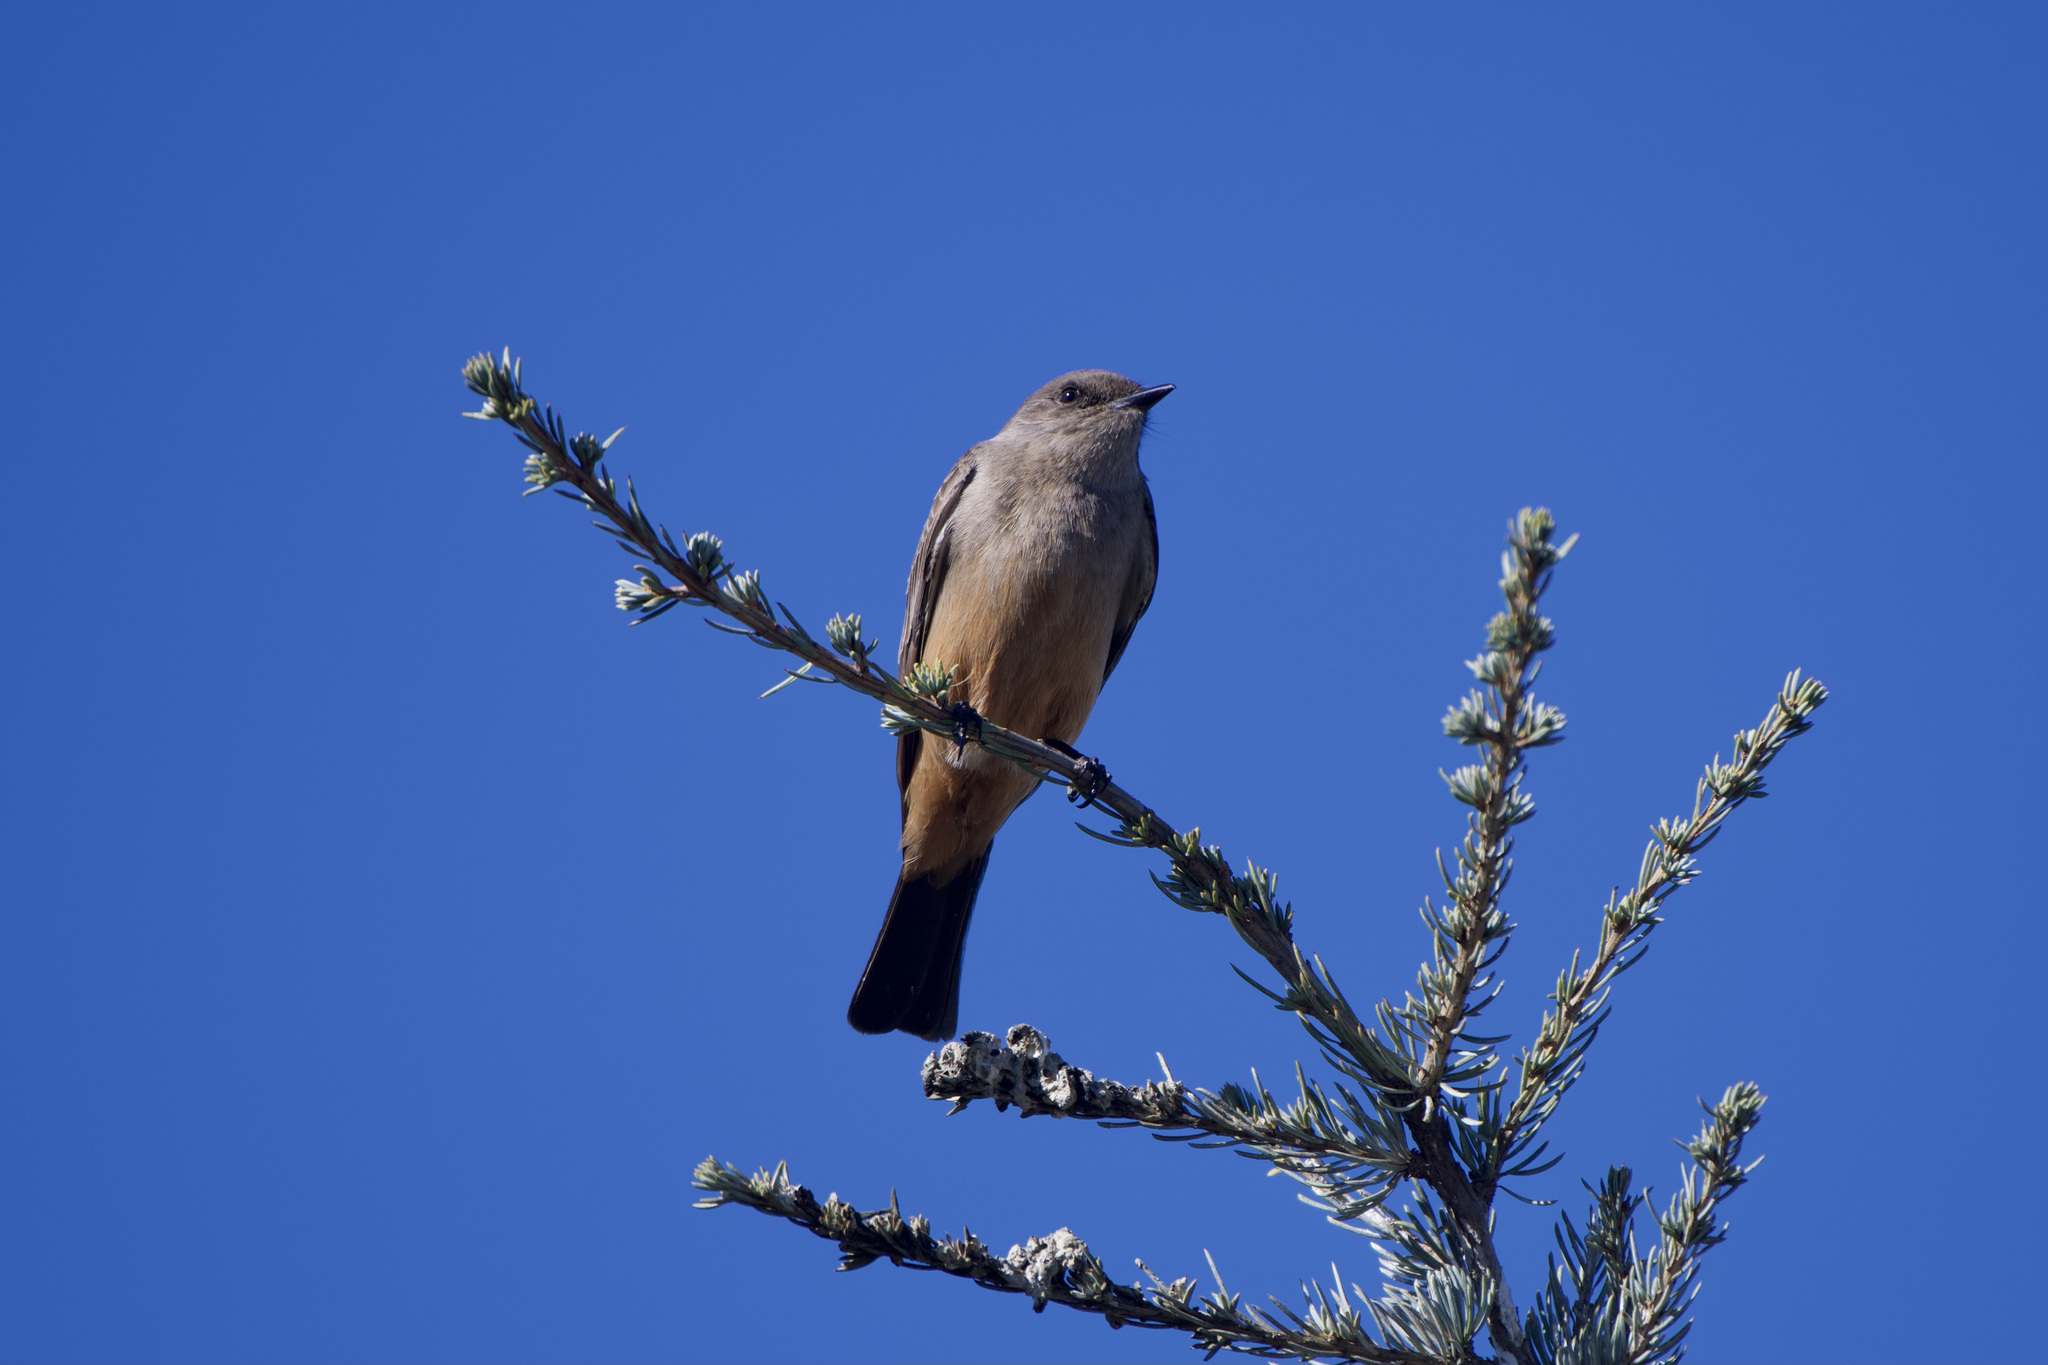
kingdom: Animalia
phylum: Chordata
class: Aves
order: Passeriformes
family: Tyrannidae
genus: Sayornis
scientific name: Sayornis saya
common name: Say's phoebe
